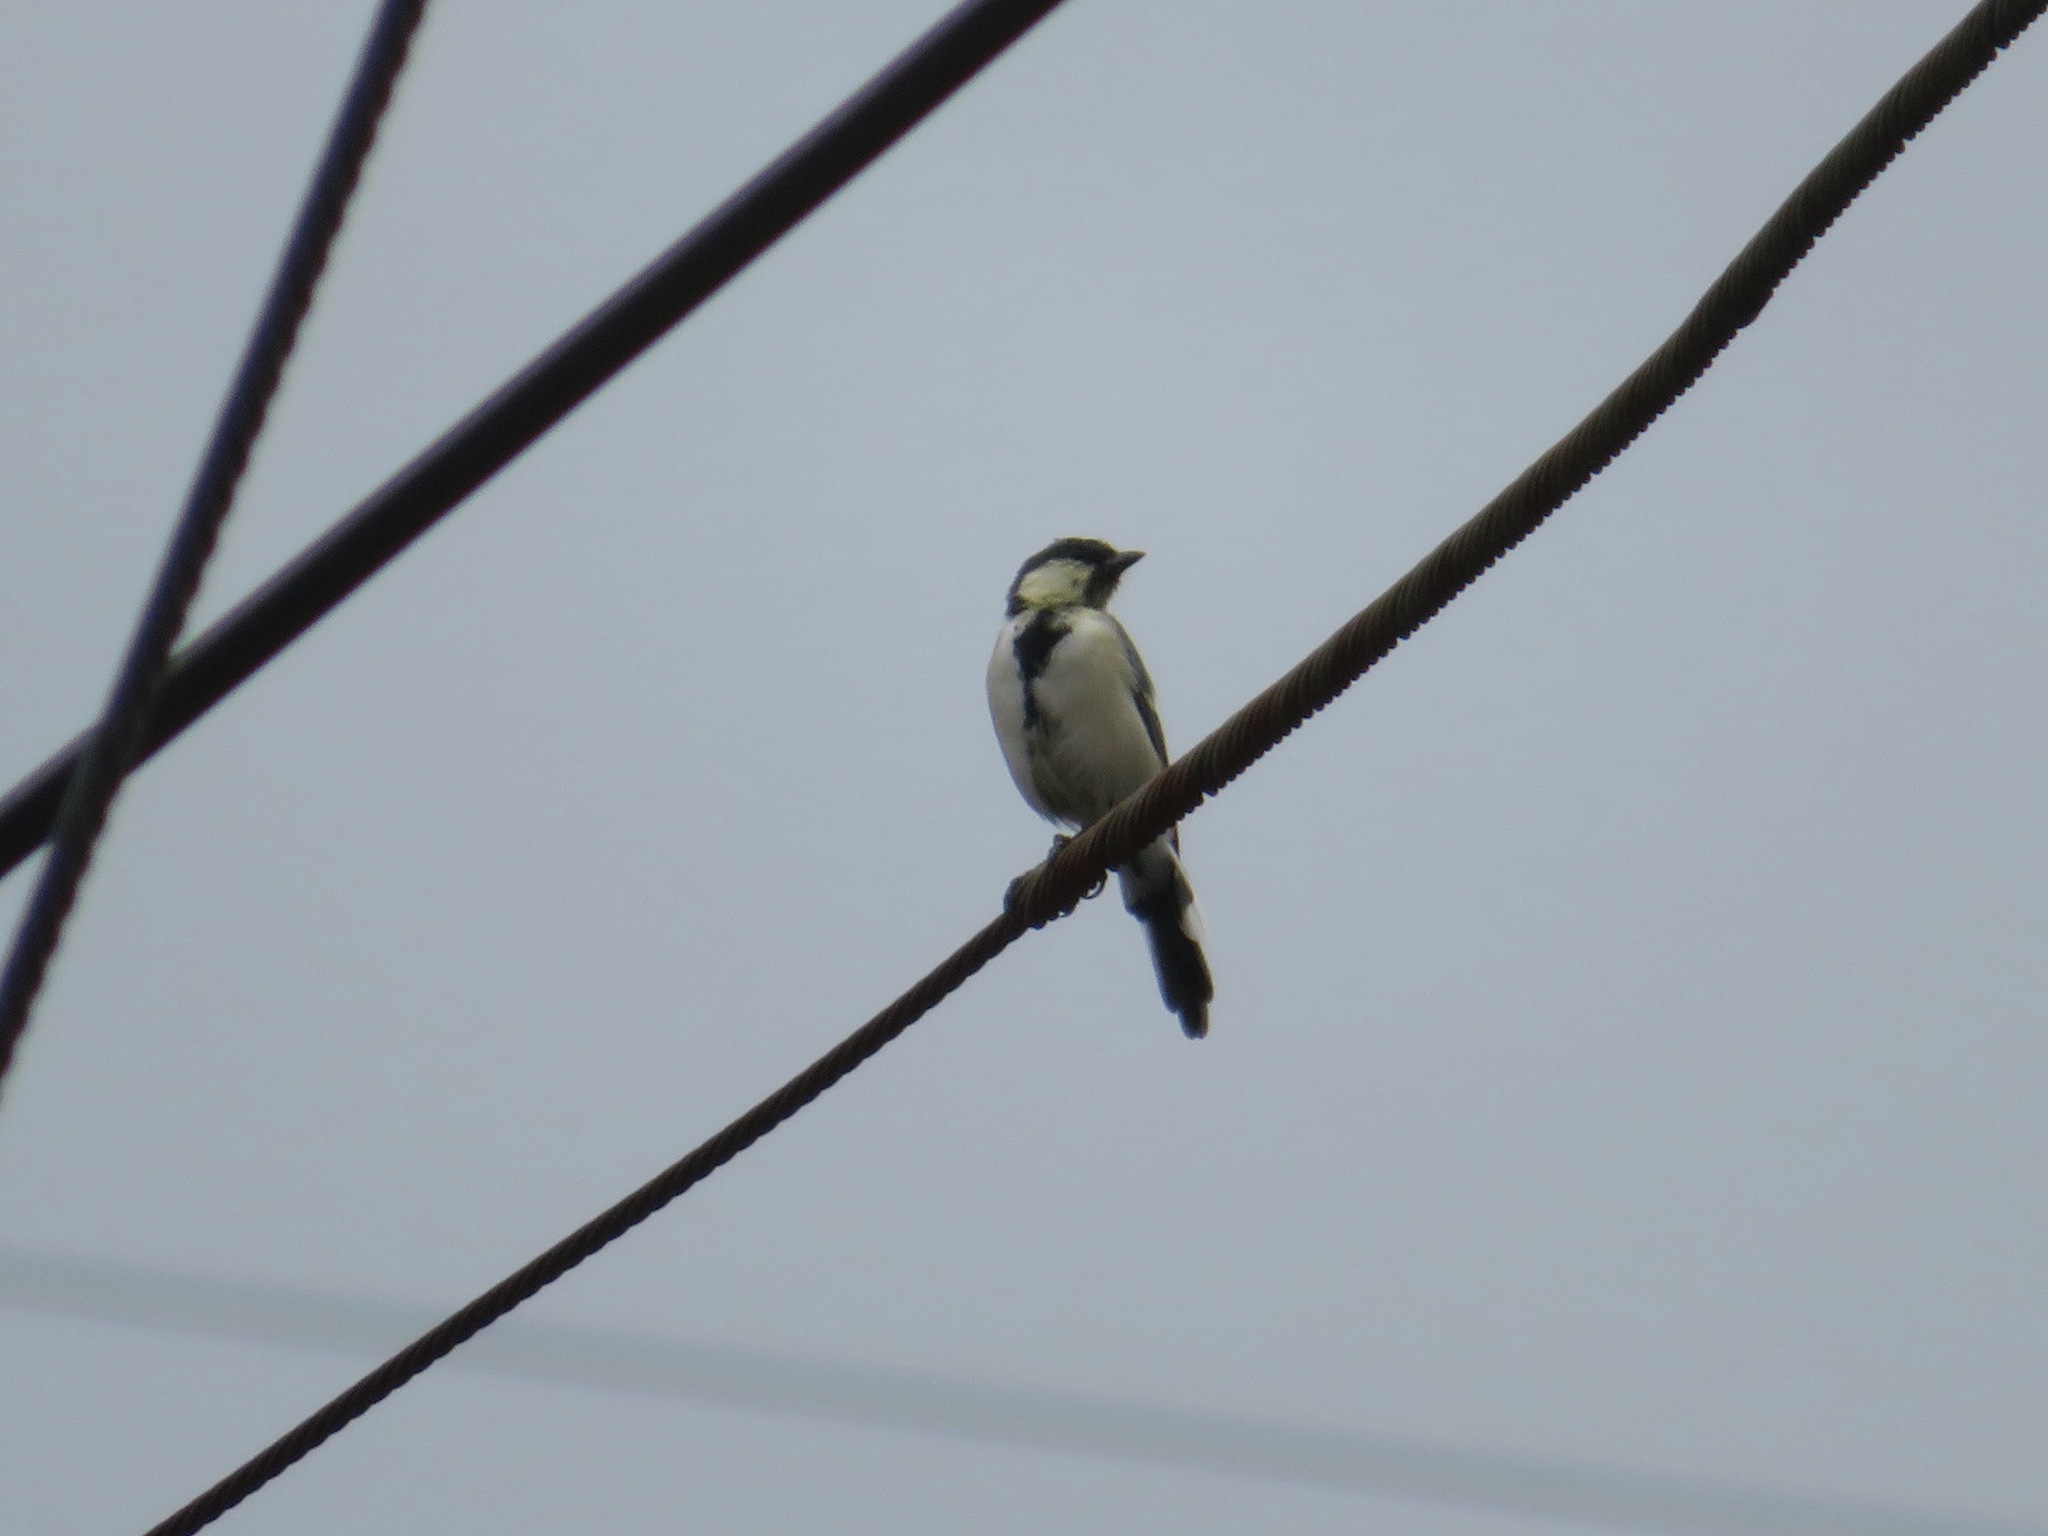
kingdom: Animalia
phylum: Chordata
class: Aves
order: Passeriformes
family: Paridae
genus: Parus
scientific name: Parus minor
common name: Japanese tit
